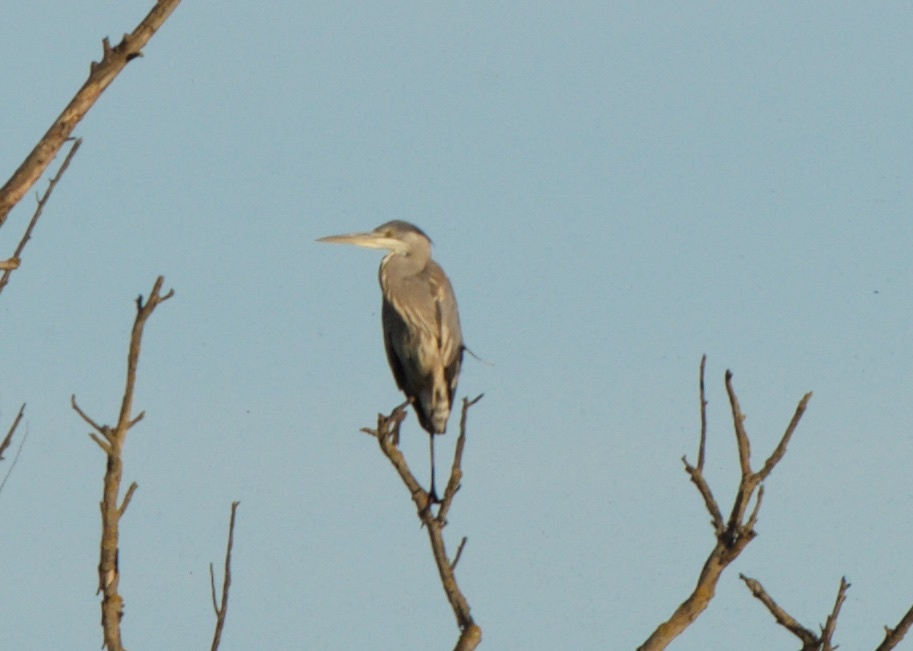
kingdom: Animalia
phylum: Chordata
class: Aves
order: Pelecaniformes
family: Ardeidae
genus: Ardea
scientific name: Ardea herodias
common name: Great blue heron
